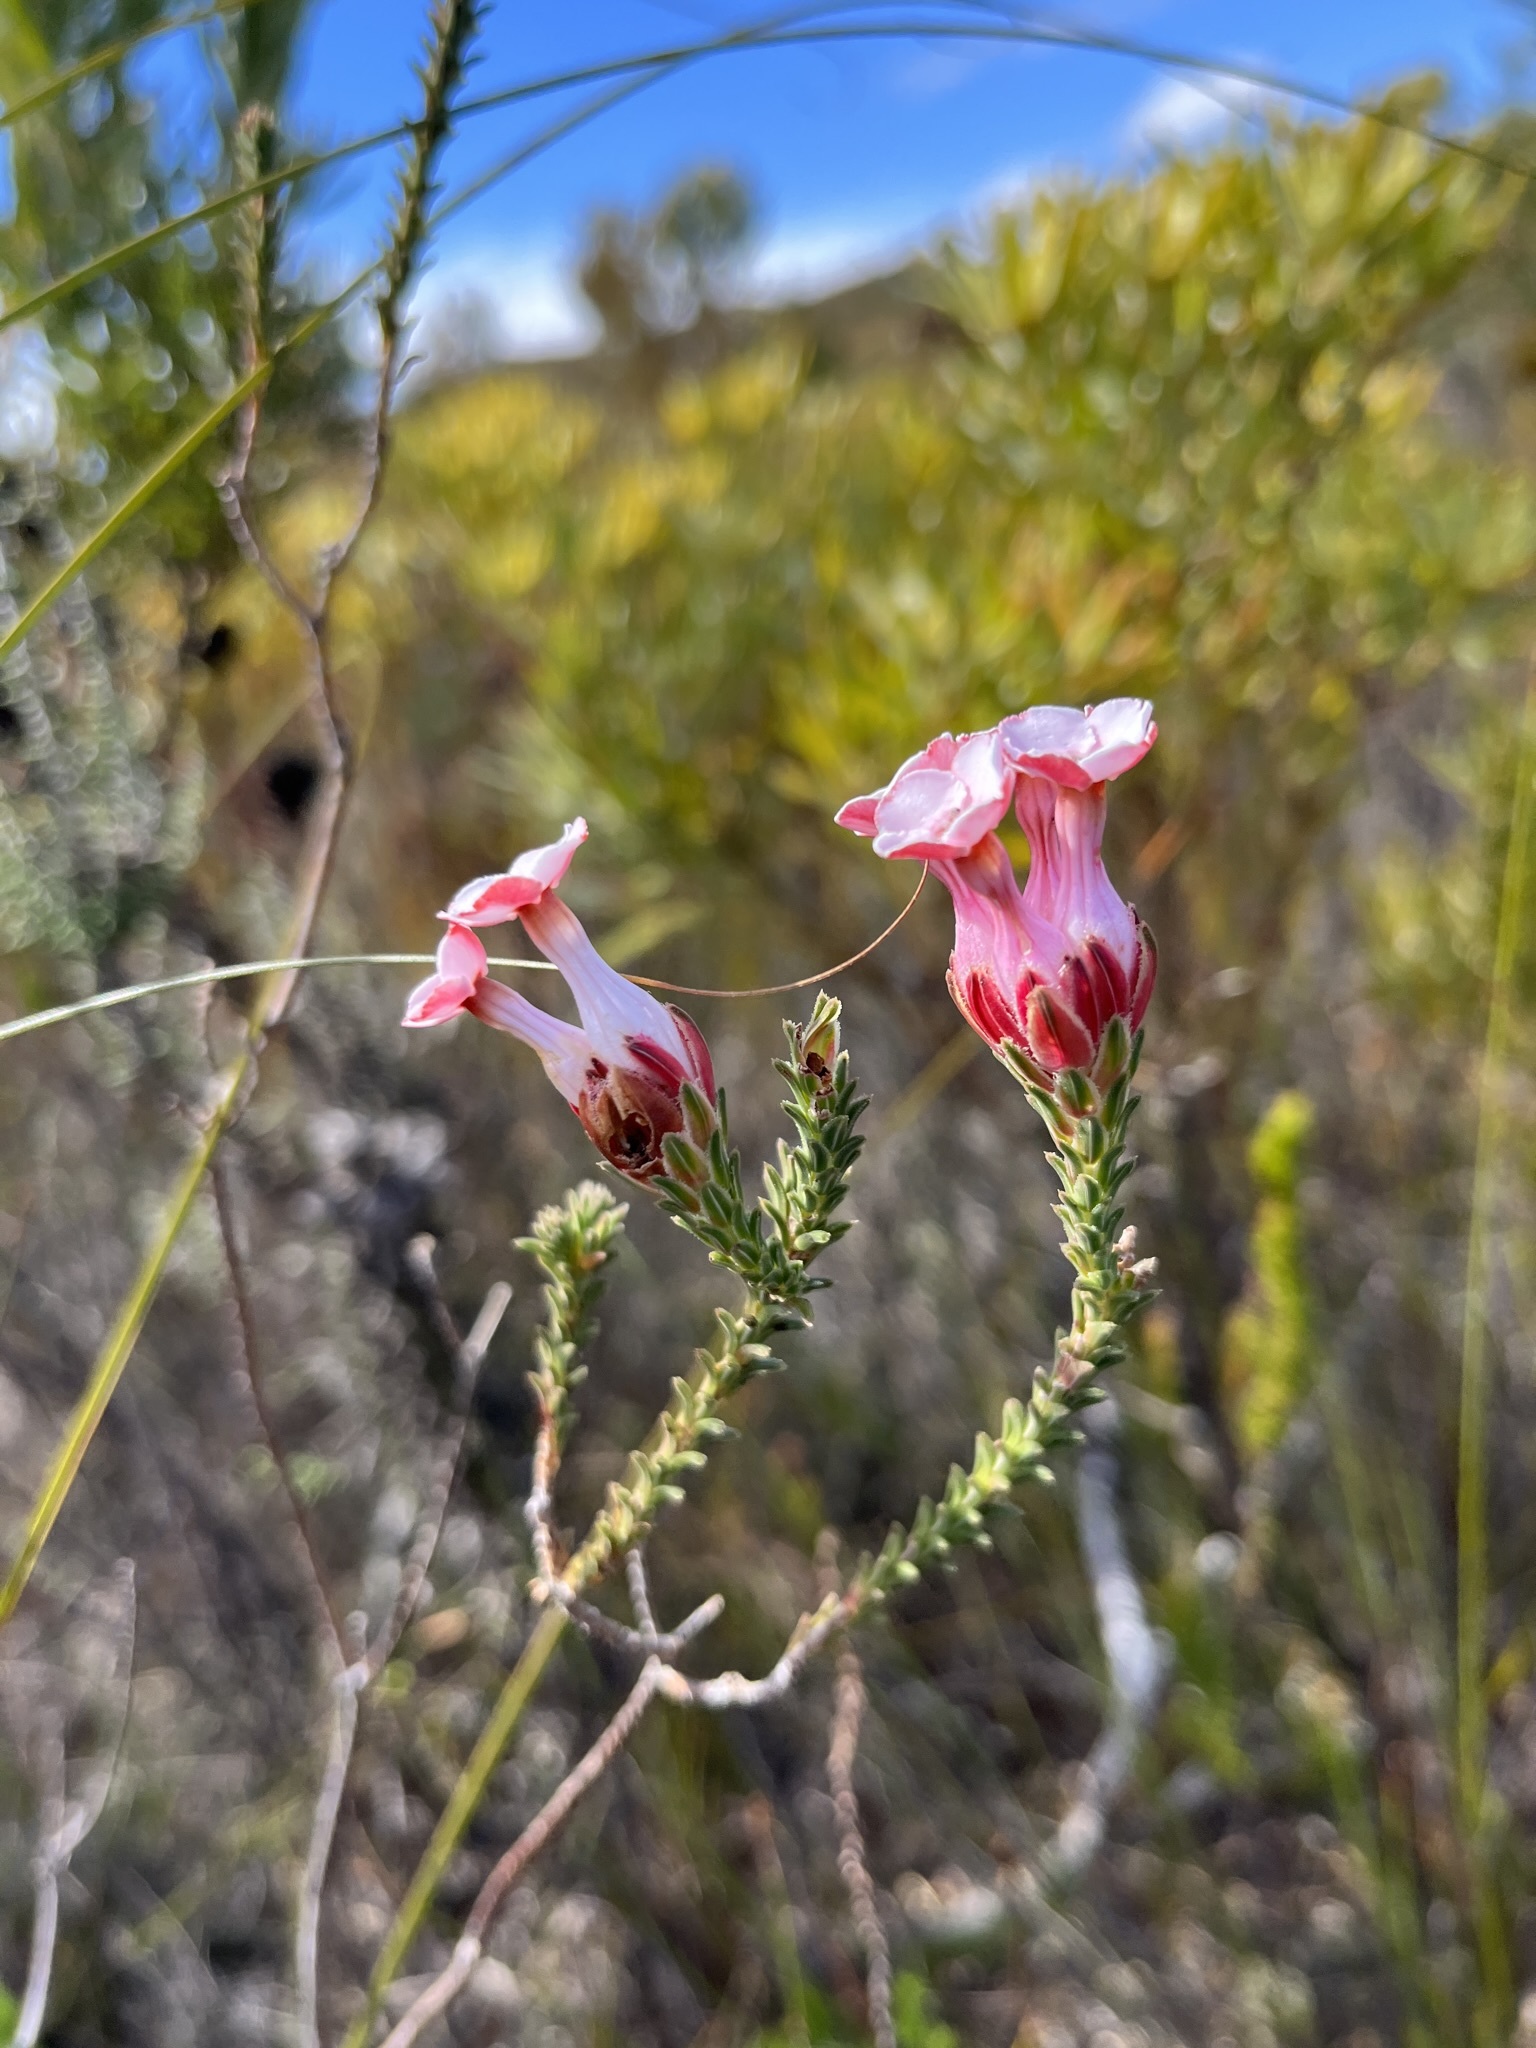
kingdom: Plantae
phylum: Tracheophyta
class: Magnoliopsida
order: Ericales
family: Ericaceae
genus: Erica
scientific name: Erica ampullacea
